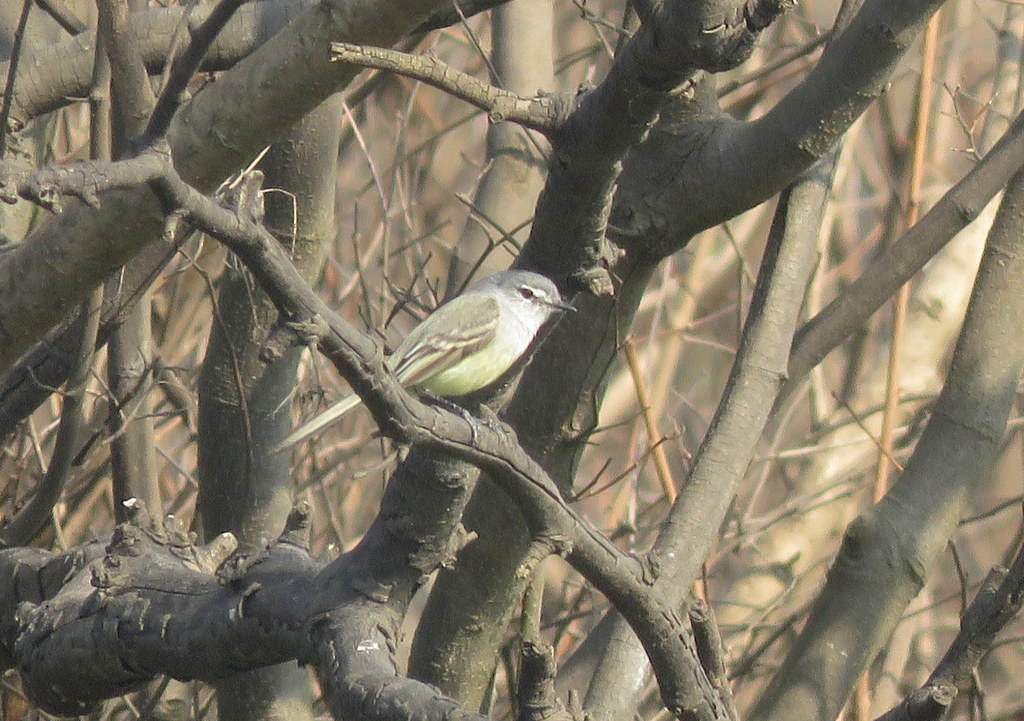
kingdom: Animalia
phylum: Chordata
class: Aves
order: Passeriformes
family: Tyrannidae
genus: Serpophaga
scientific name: Serpophaga subcristata
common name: White-crested tyrannulet
